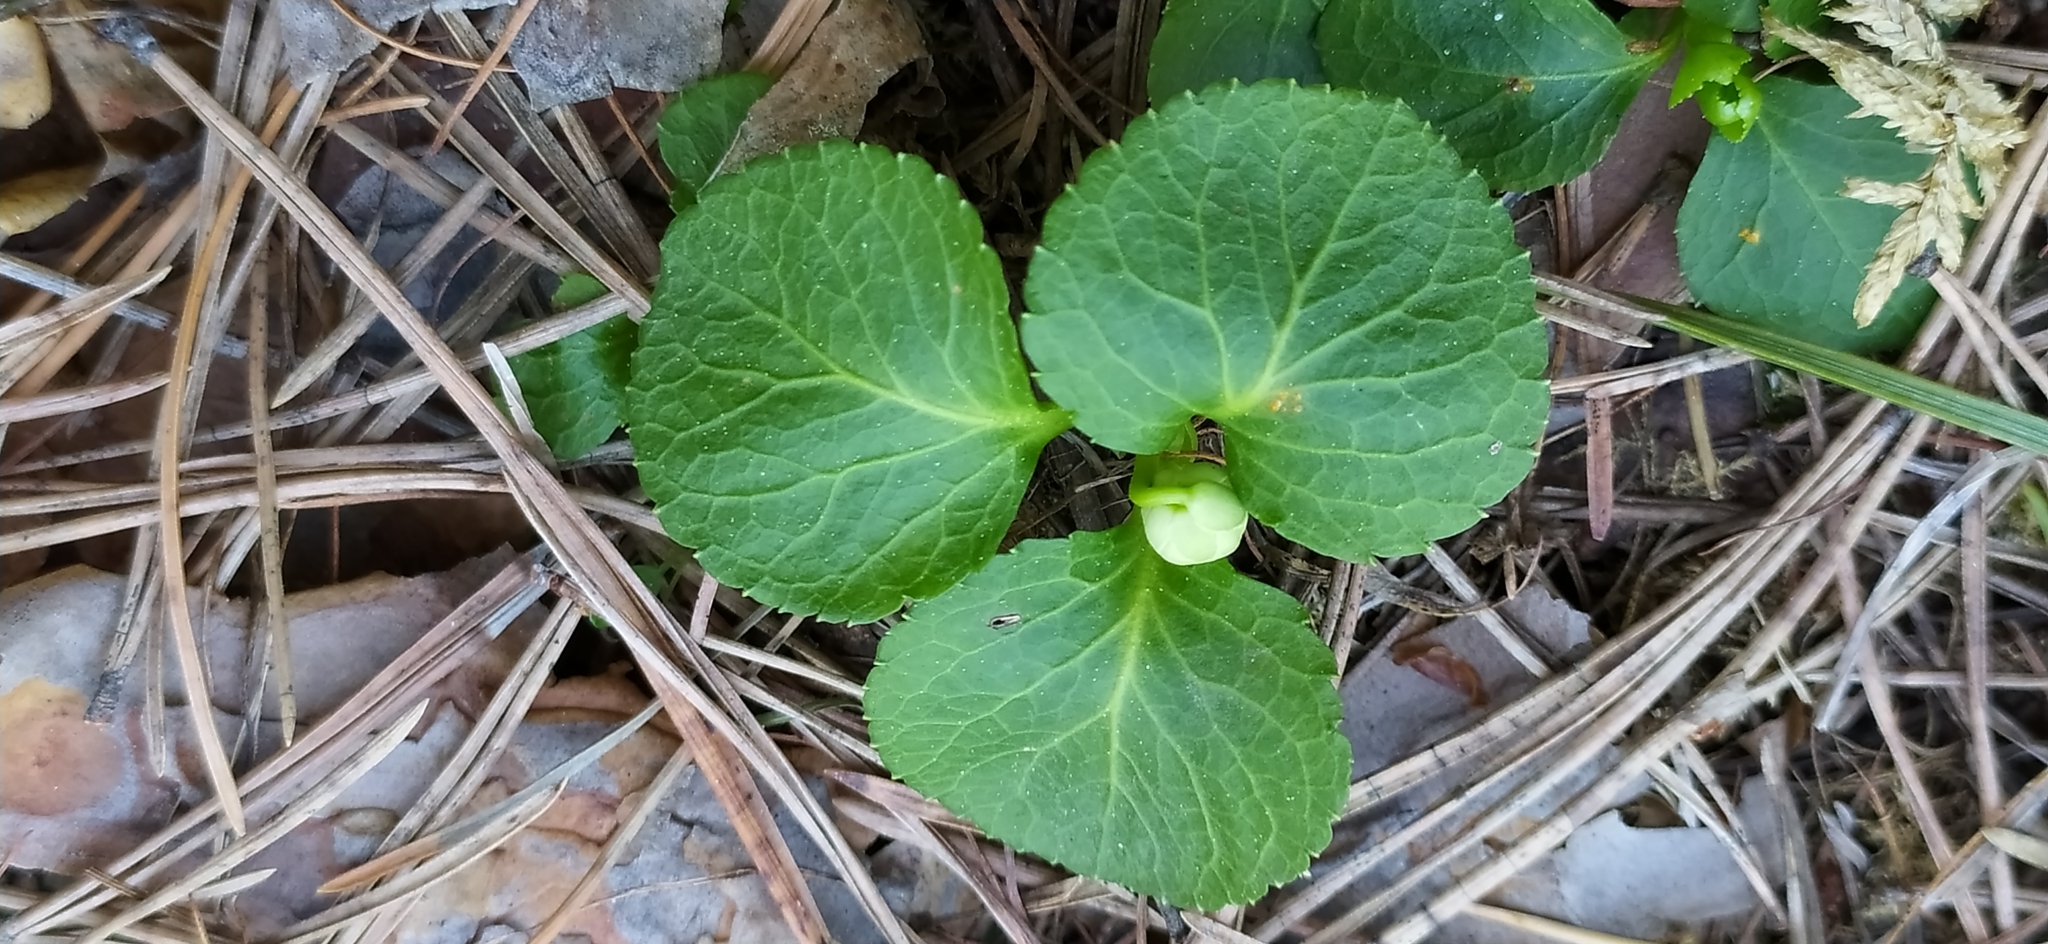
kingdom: Plantae
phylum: Tracheophyta
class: Magnoliopsida
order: Ericales
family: Ericaceae
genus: Moneses
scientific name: Moneses uniflora
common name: One-flowered wintergreen
